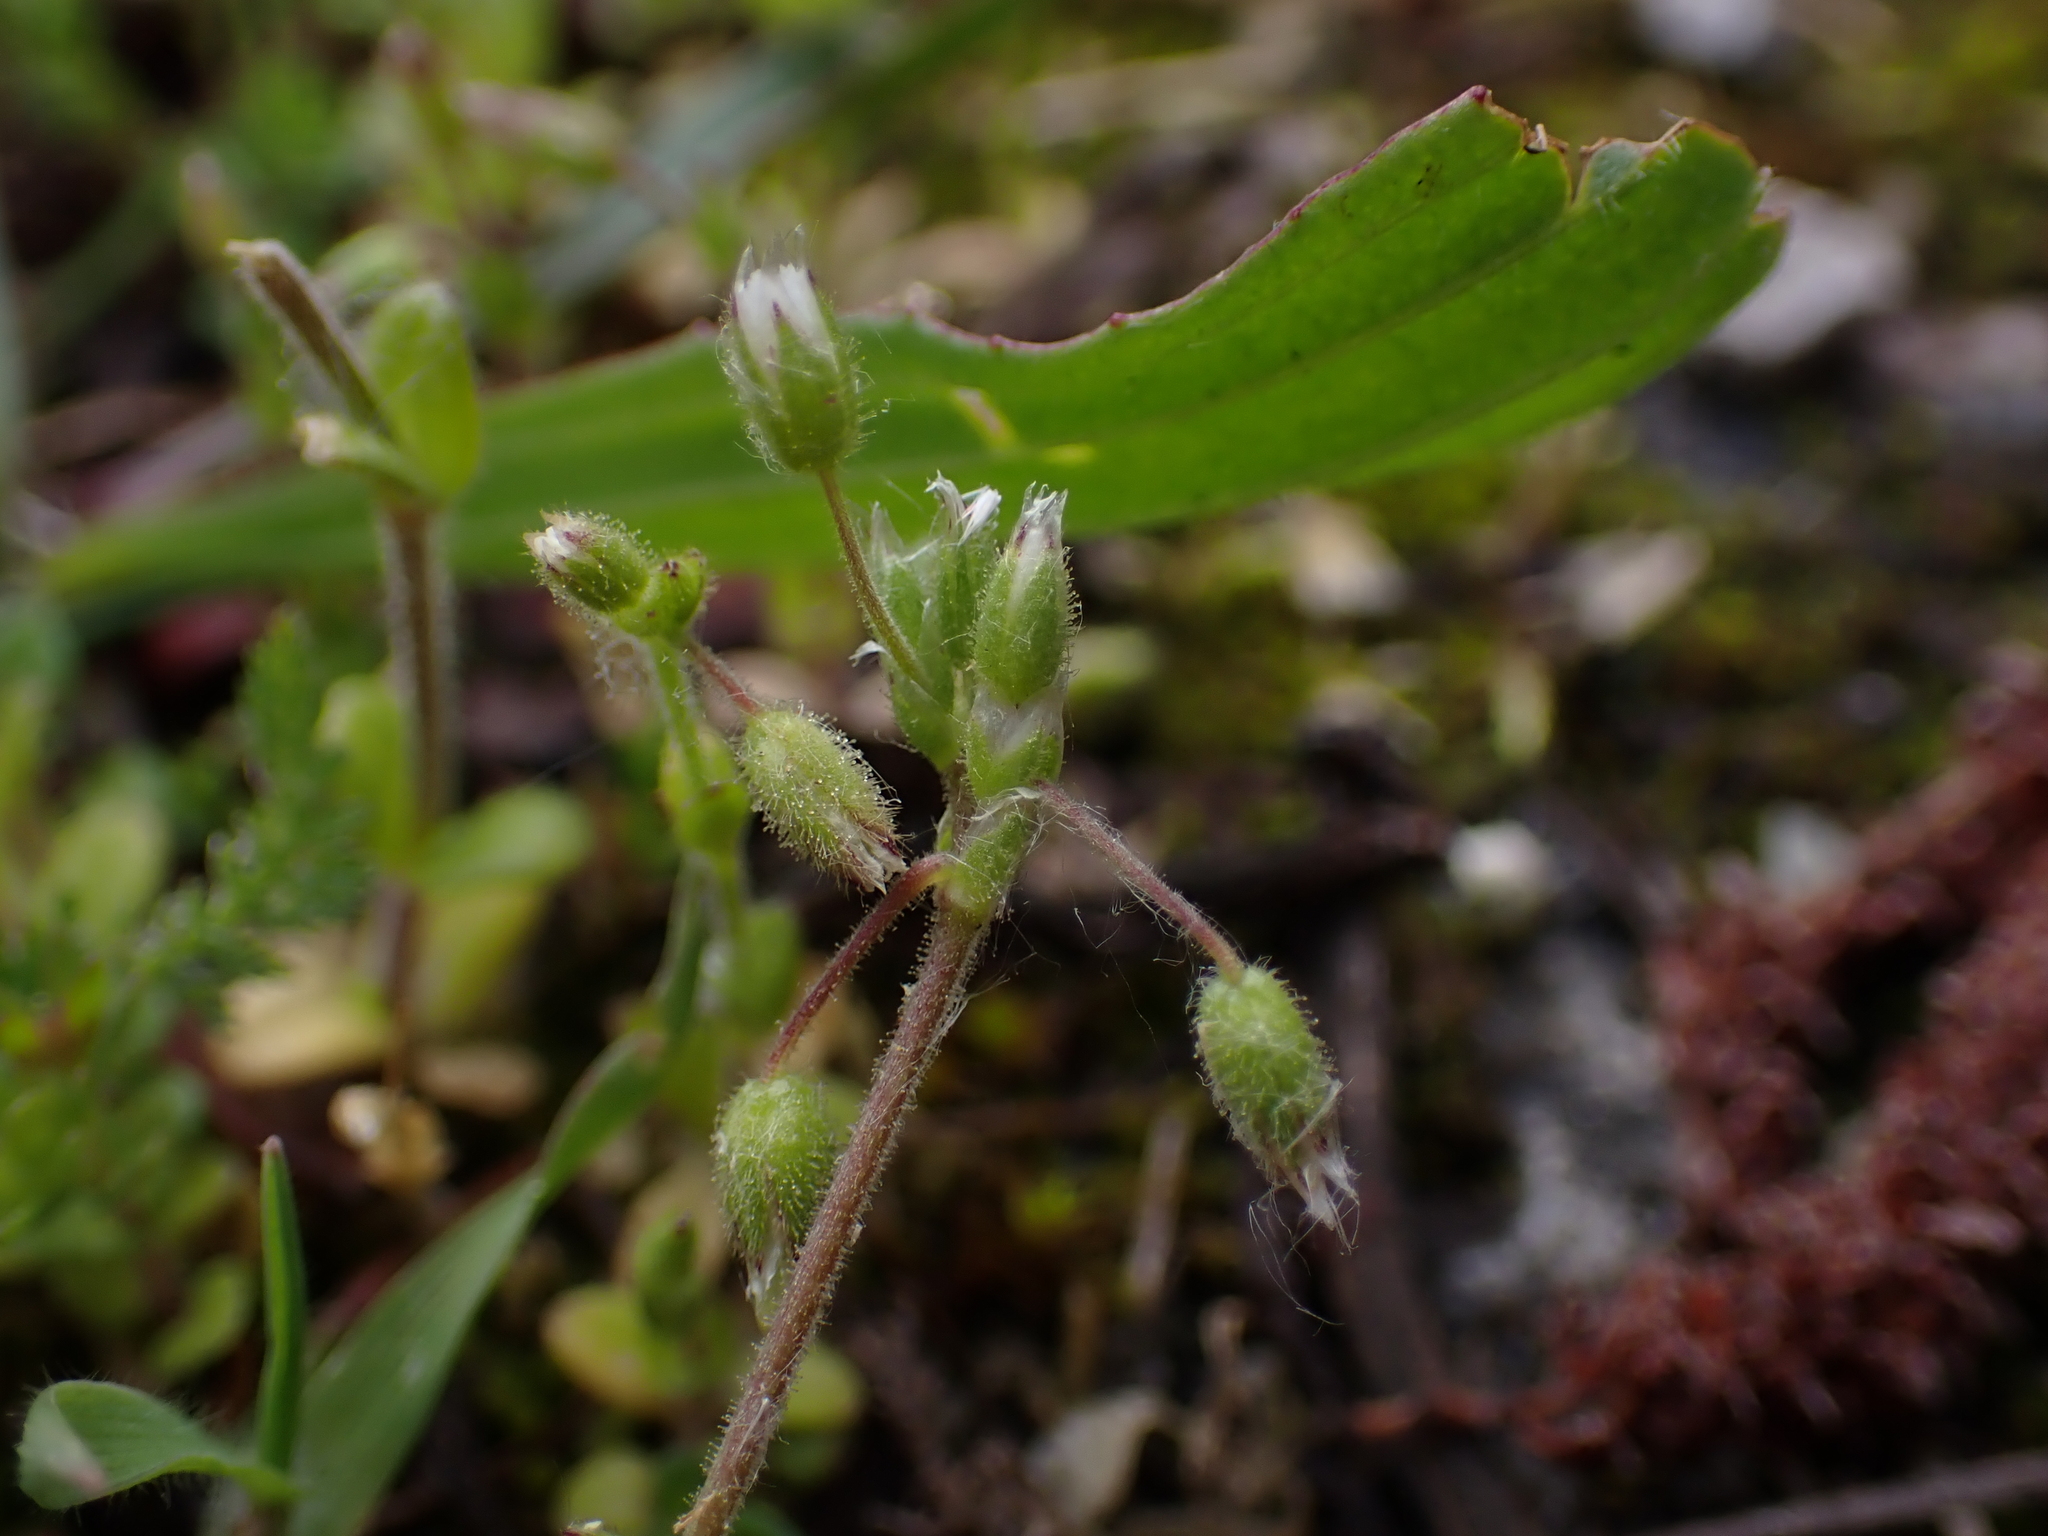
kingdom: Plantae
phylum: Tracheophyta
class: Magnoliopsida
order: Caryophyllales
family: Caryophyllaceae
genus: Cerastium
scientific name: Cerastium semidecandrum
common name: Little mouse-ear
